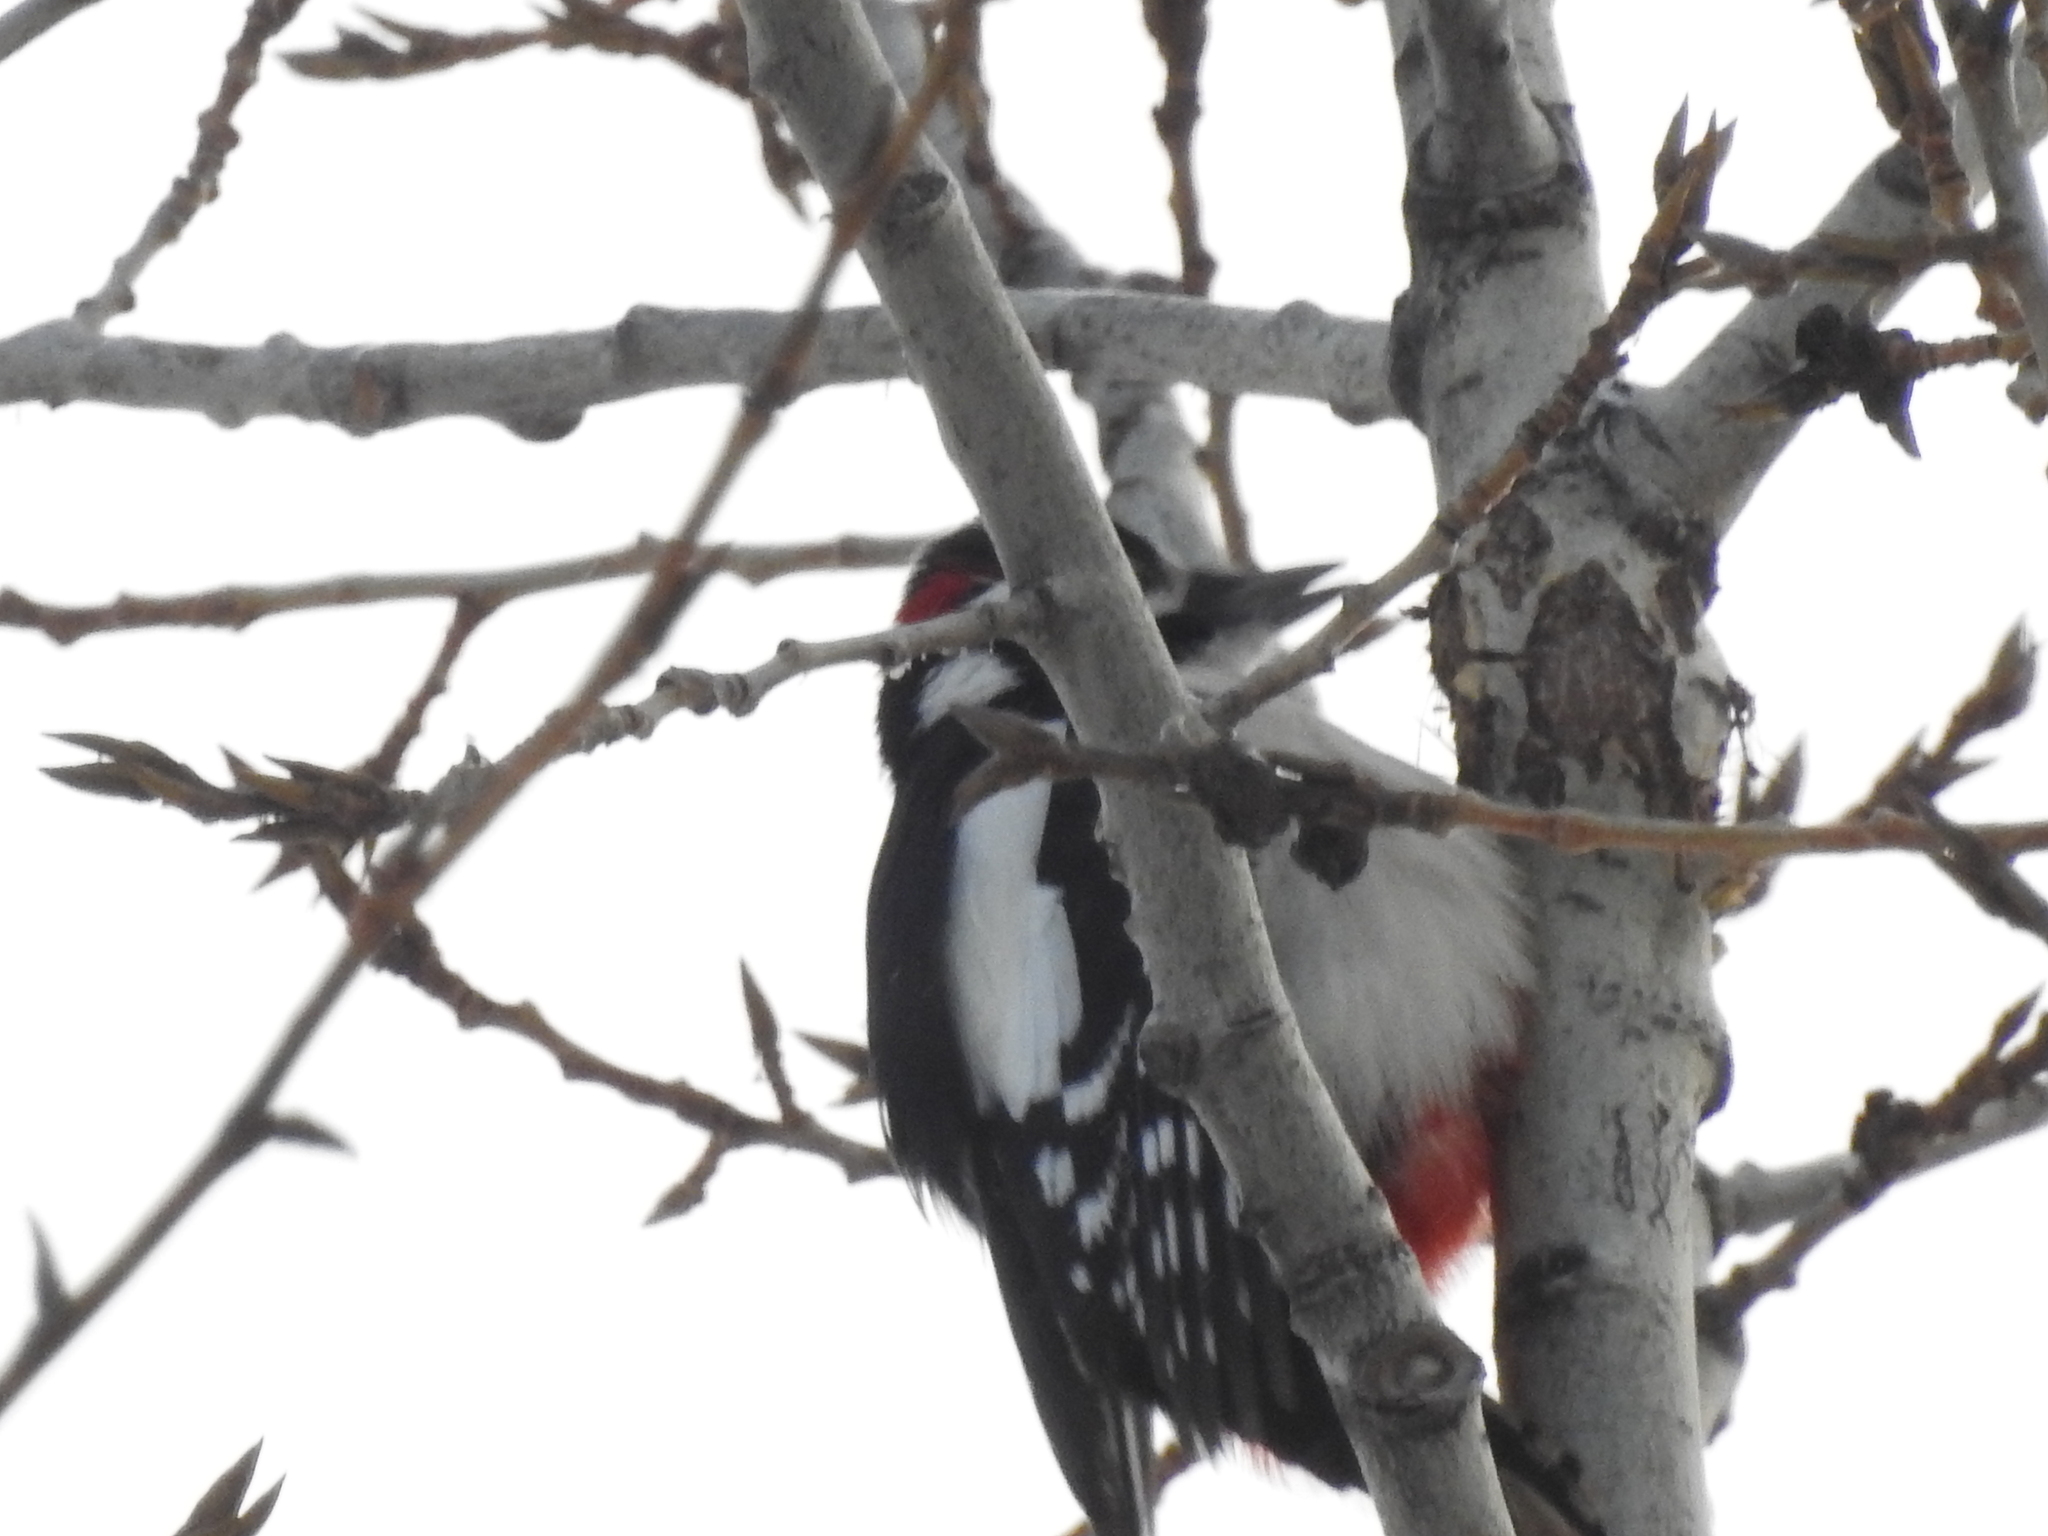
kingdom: Animalia
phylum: Chordata
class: Aves
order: Piciformes
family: Picidae
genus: Dendrocopos
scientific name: Dendrocopos major
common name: Great spotted woodpecker
